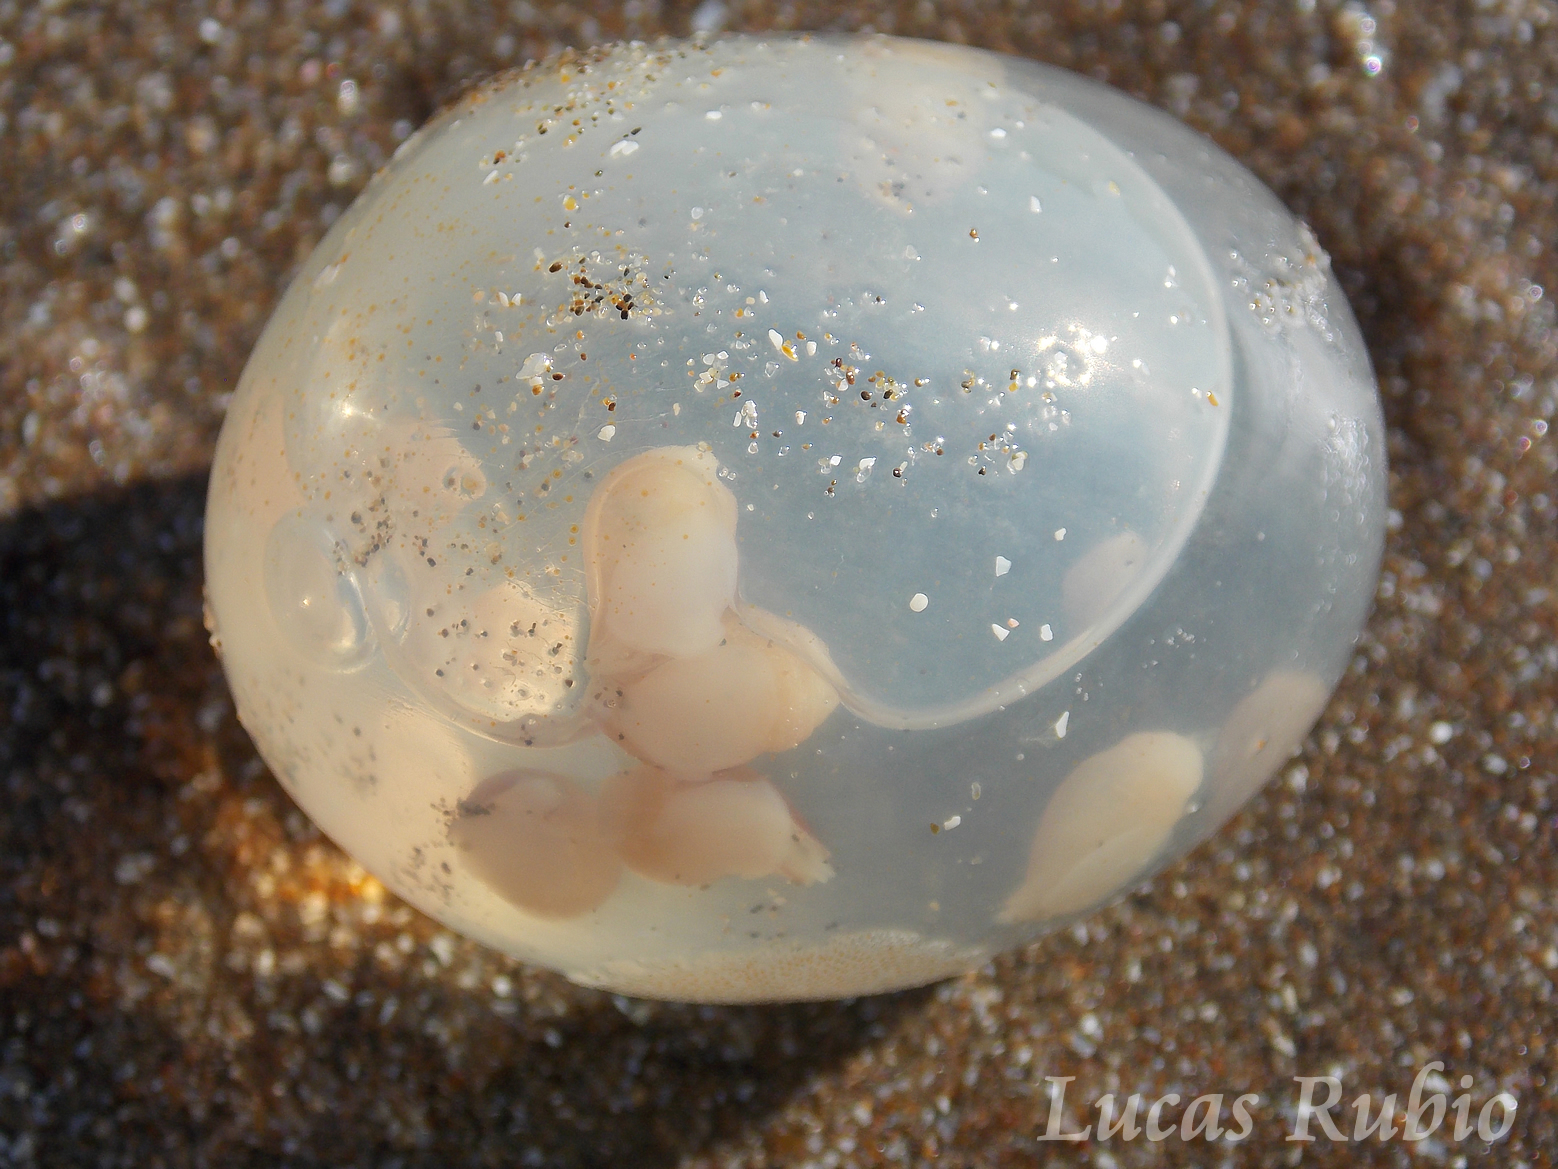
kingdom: Animalia
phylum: Mollusca
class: Gastropoda
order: Neogastropoda
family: Volutidae
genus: Pachycymbiola
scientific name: Pachycymbiola brasiliana
